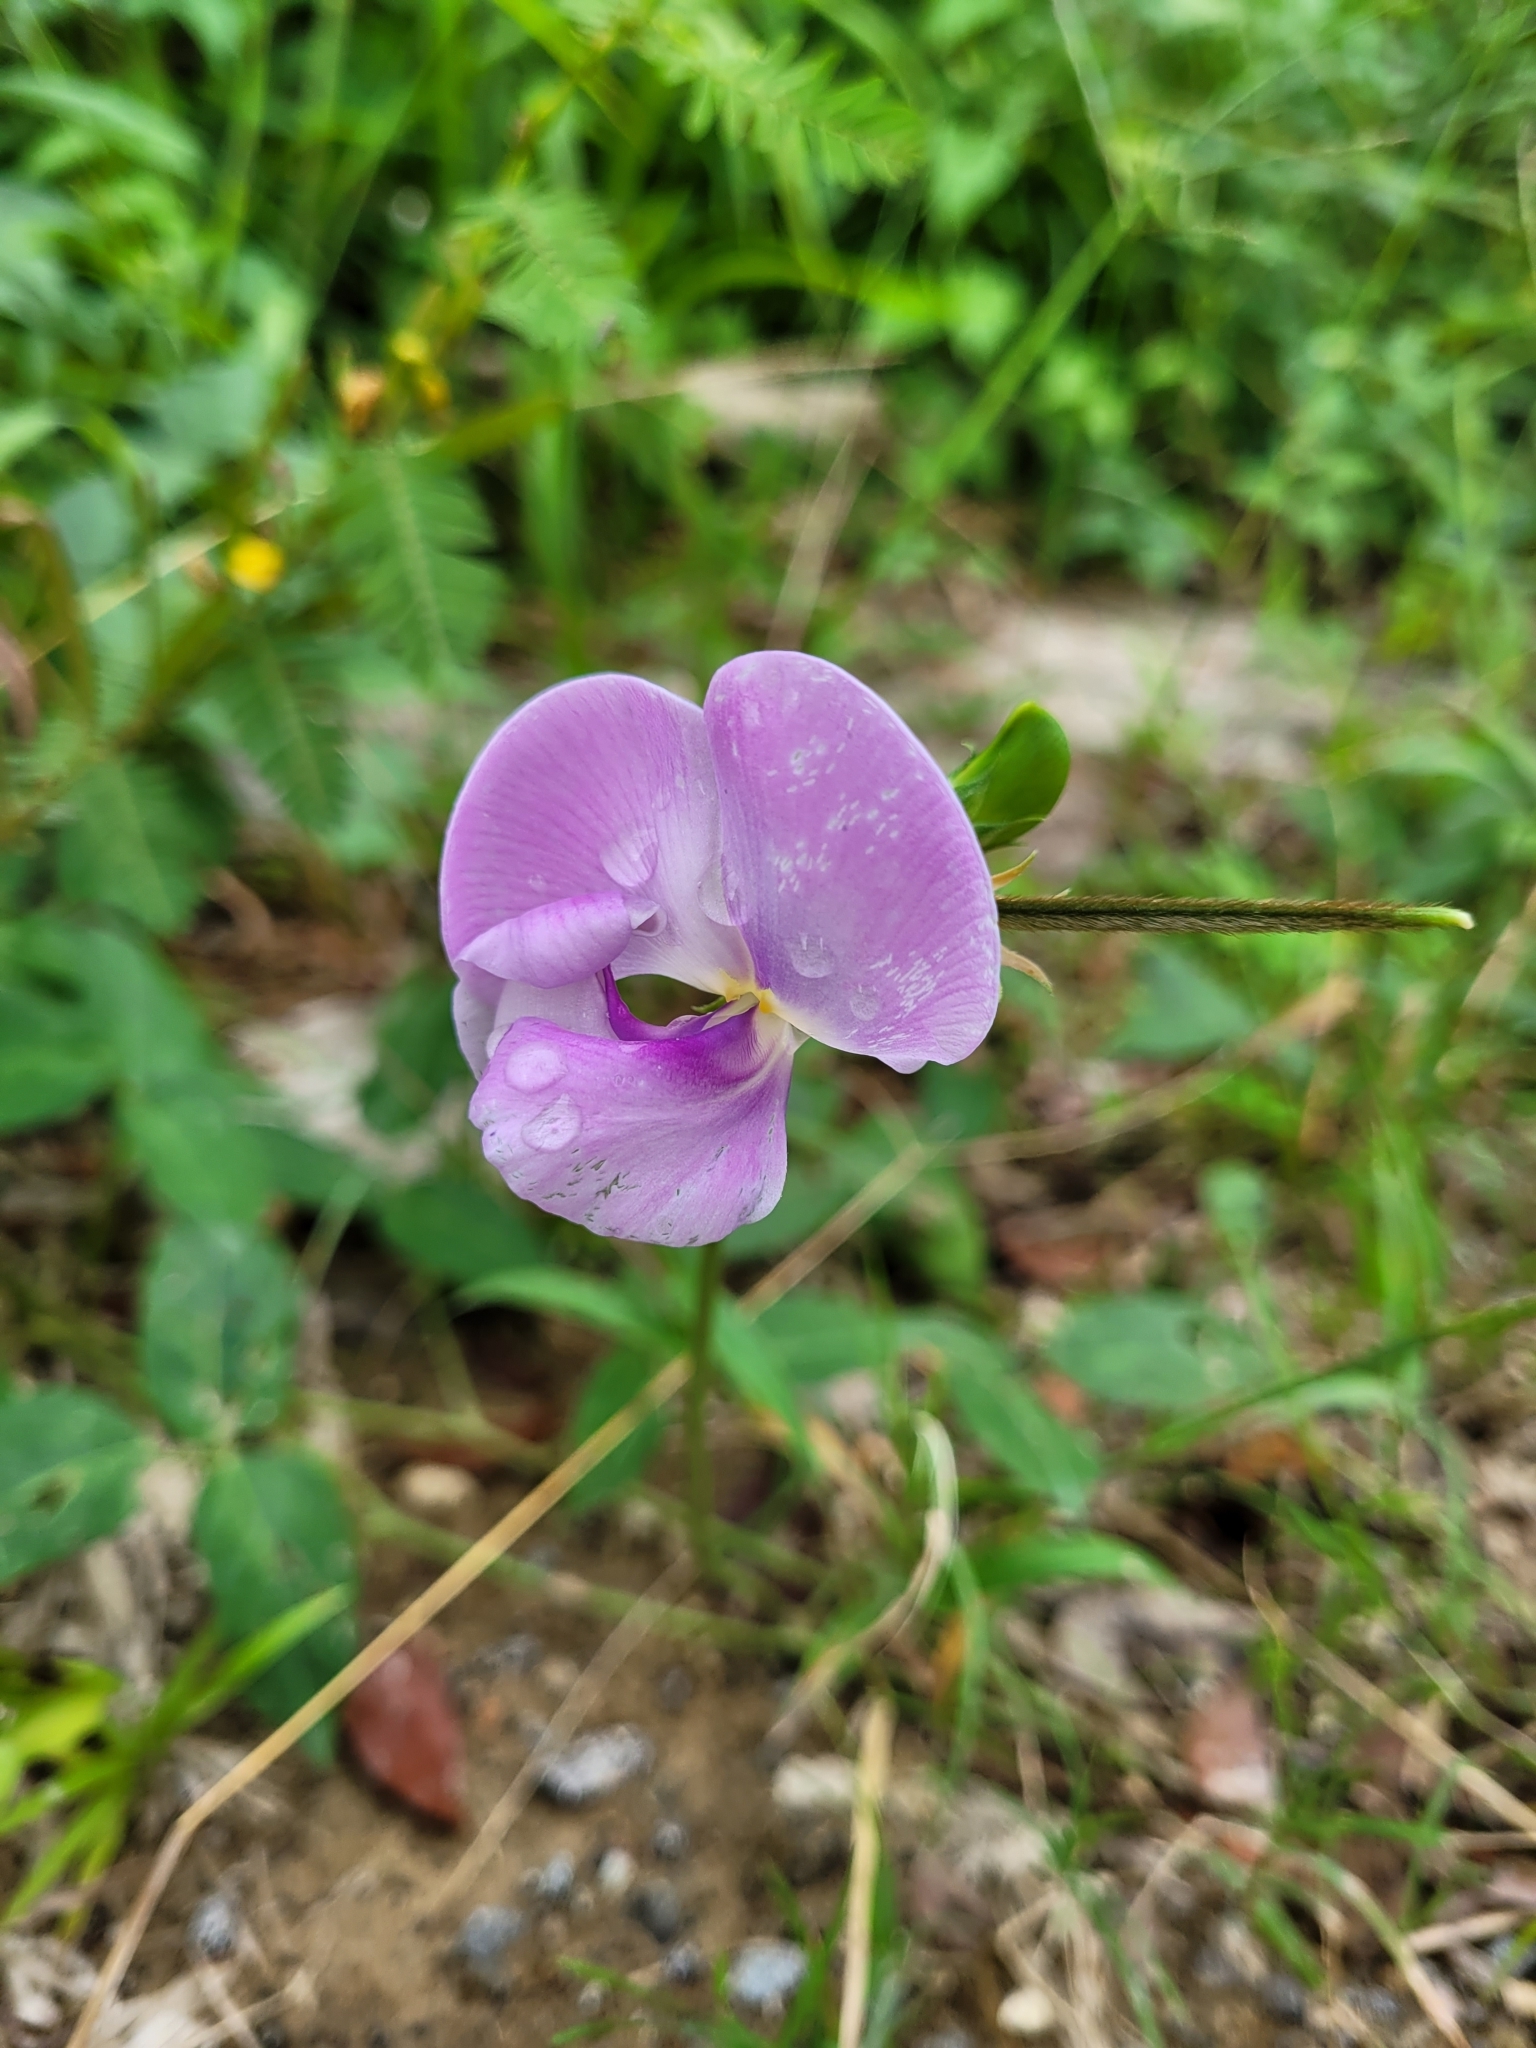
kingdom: Plantae
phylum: Tracheophyta
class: Magnoliopsida
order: Fabales
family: Fabaceae
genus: Vigna
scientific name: Vigna vexillata
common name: Zombi pea
